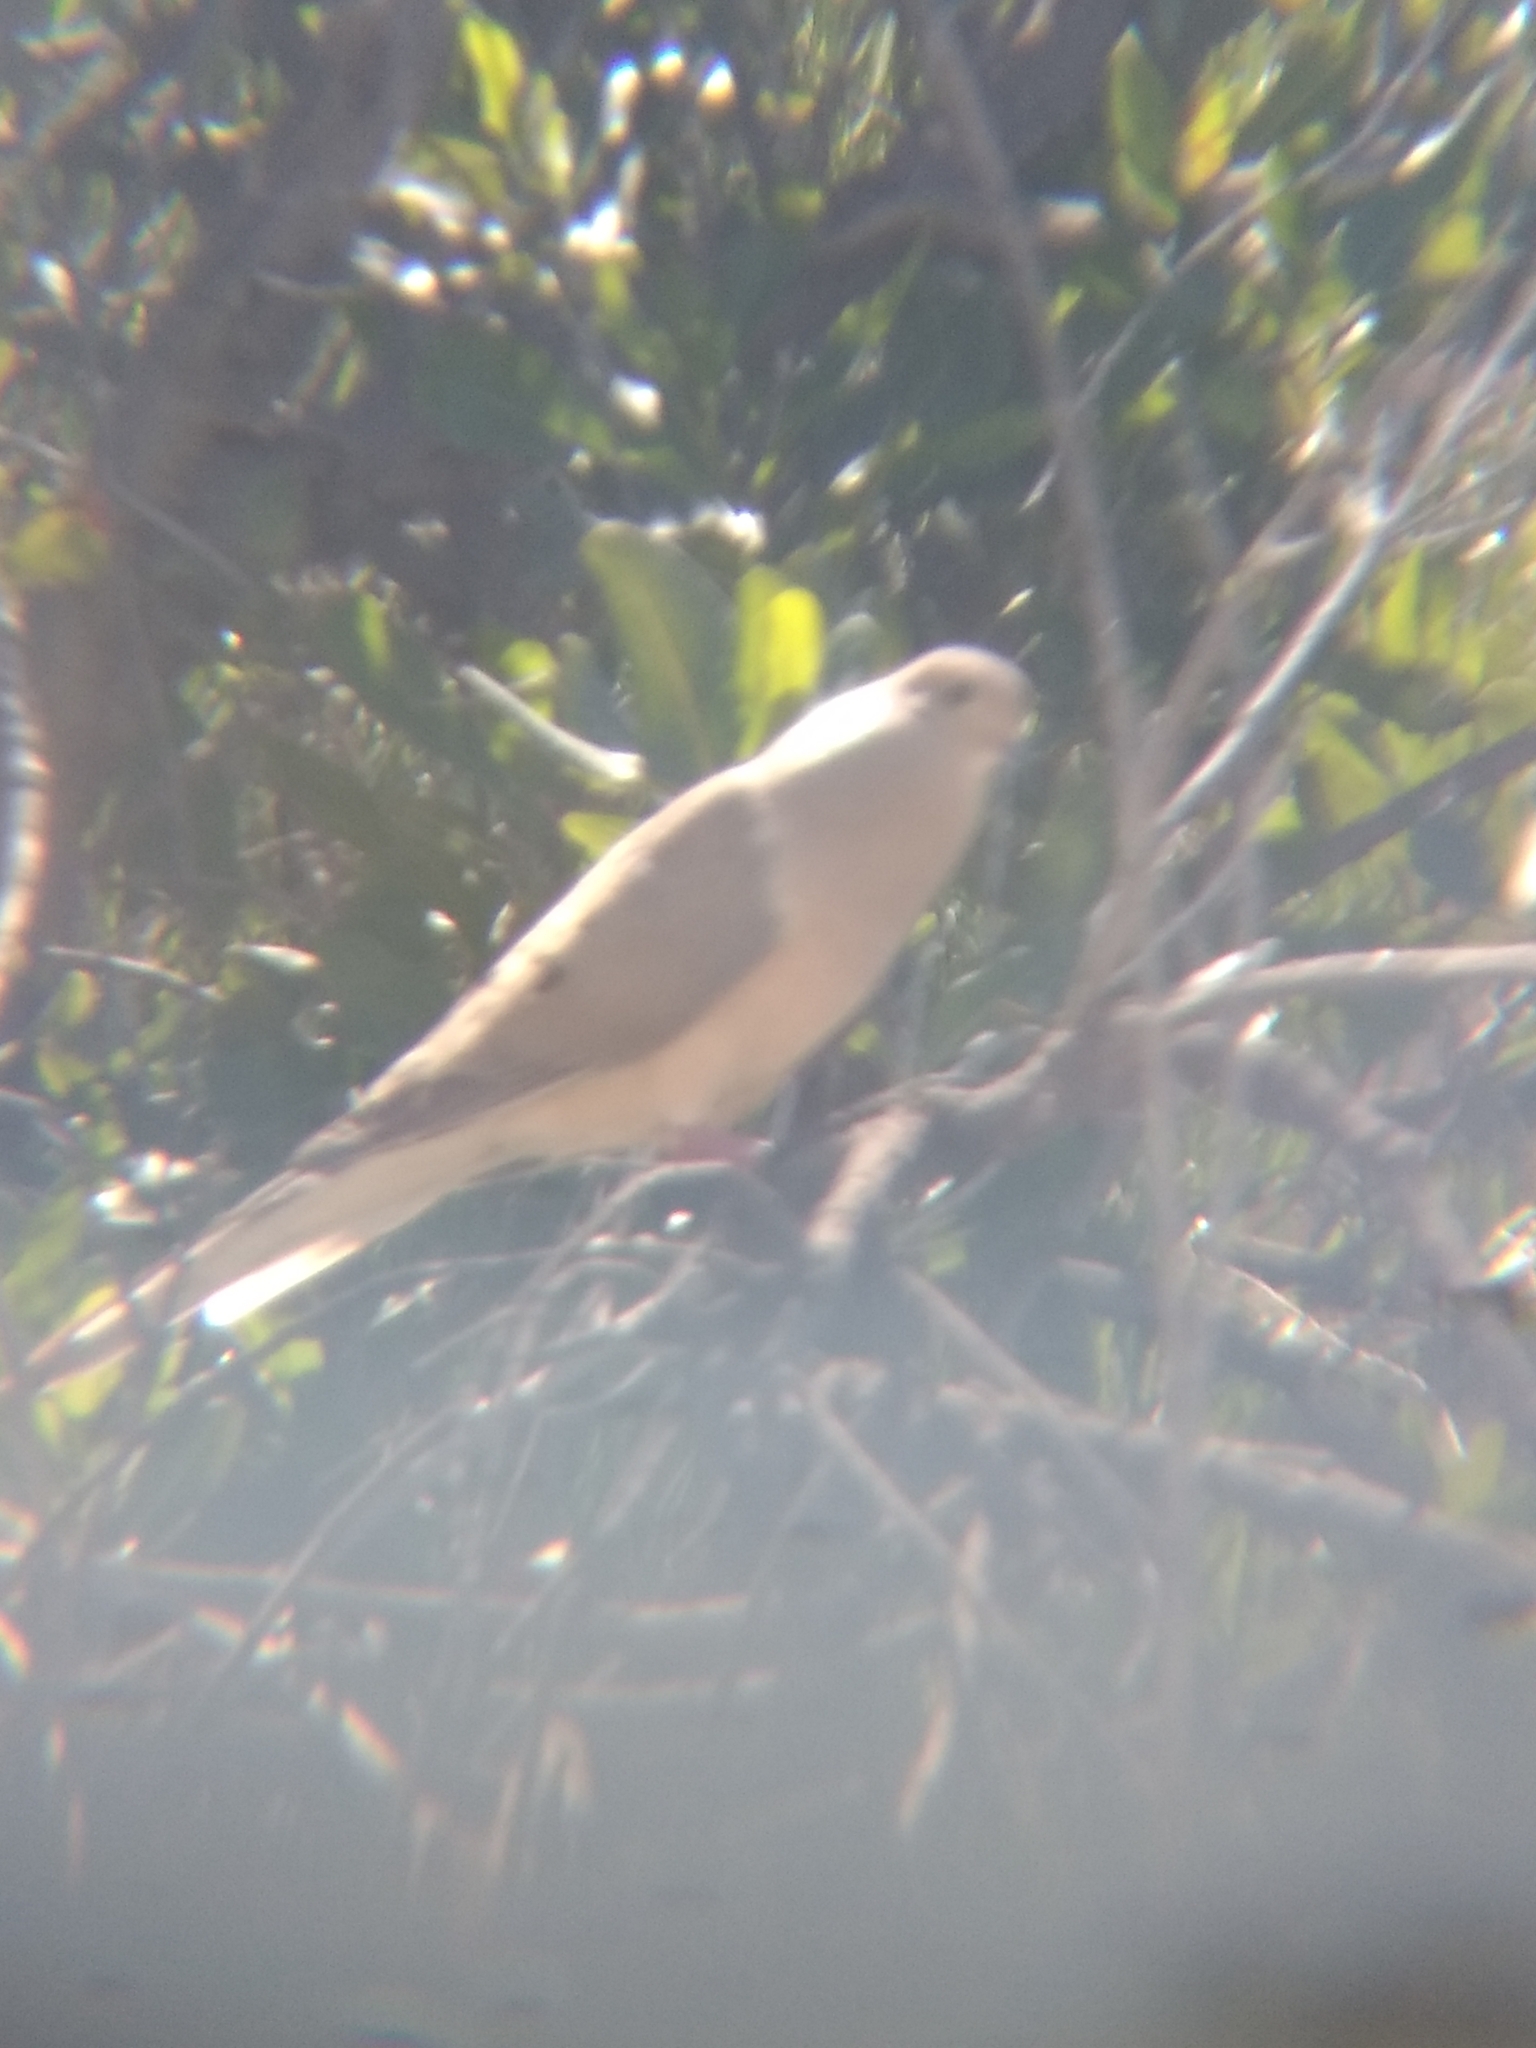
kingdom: Animalia
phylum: Chordata
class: Aves
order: Columbiformes
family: Columbidae
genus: Zenaida
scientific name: Zenaida macroura
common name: Mourning dove
